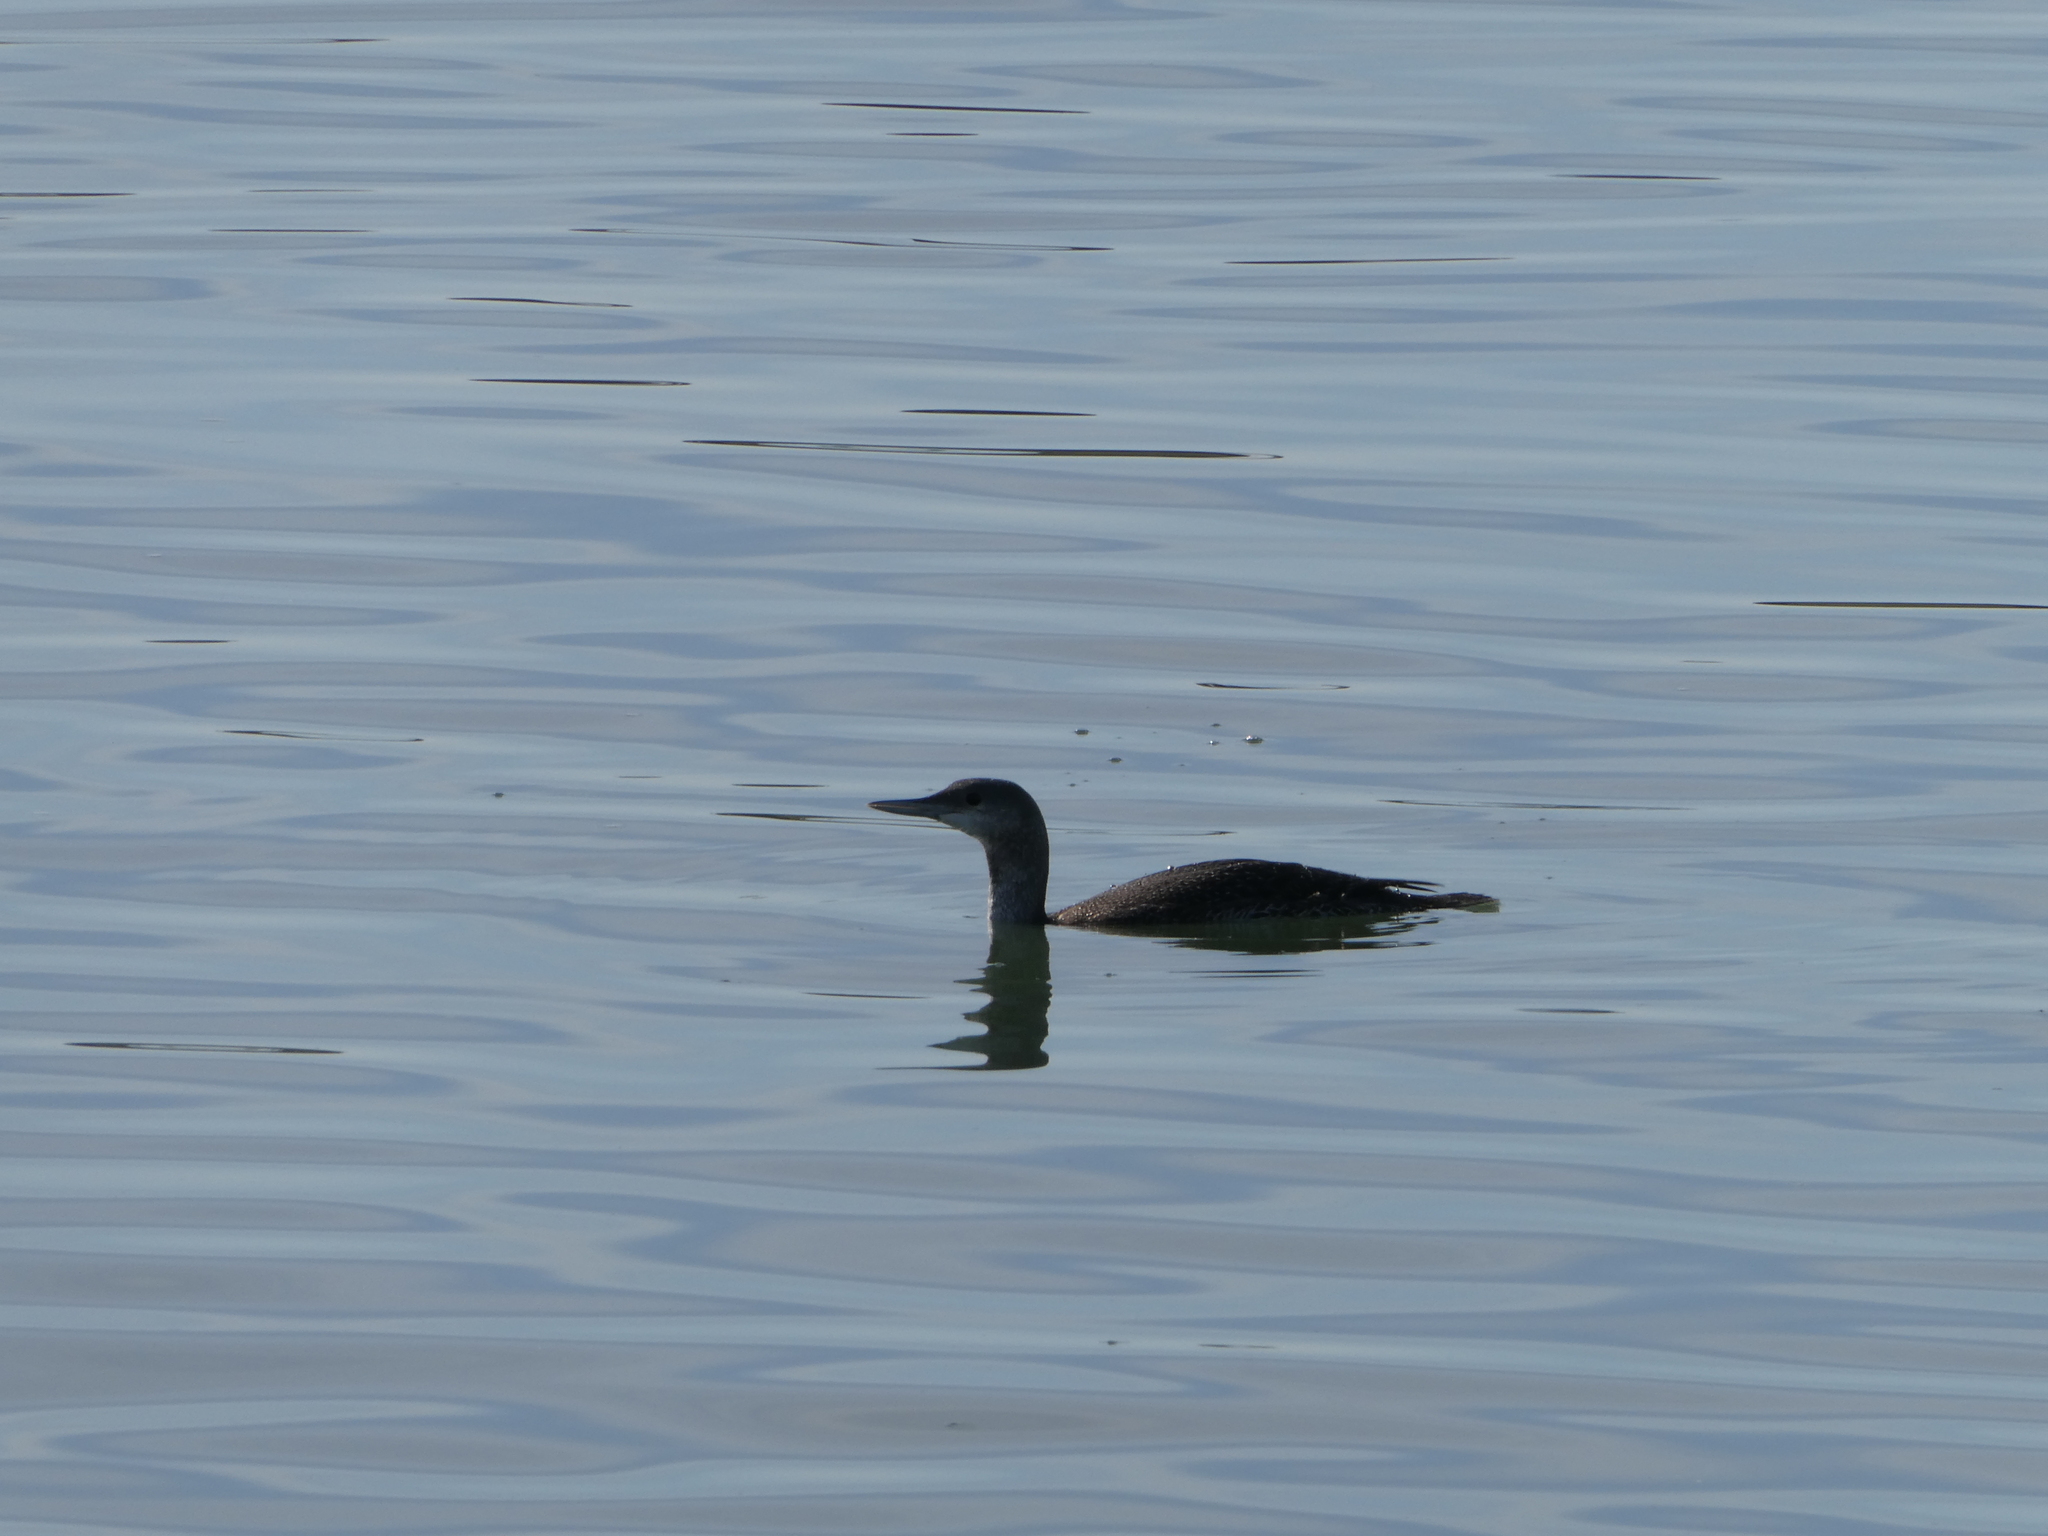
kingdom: Animalia
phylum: Chordata
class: Aves
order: Gaviiformes
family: Gaviidae
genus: Gavia
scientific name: Gavia stellata
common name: Red-throated loon
